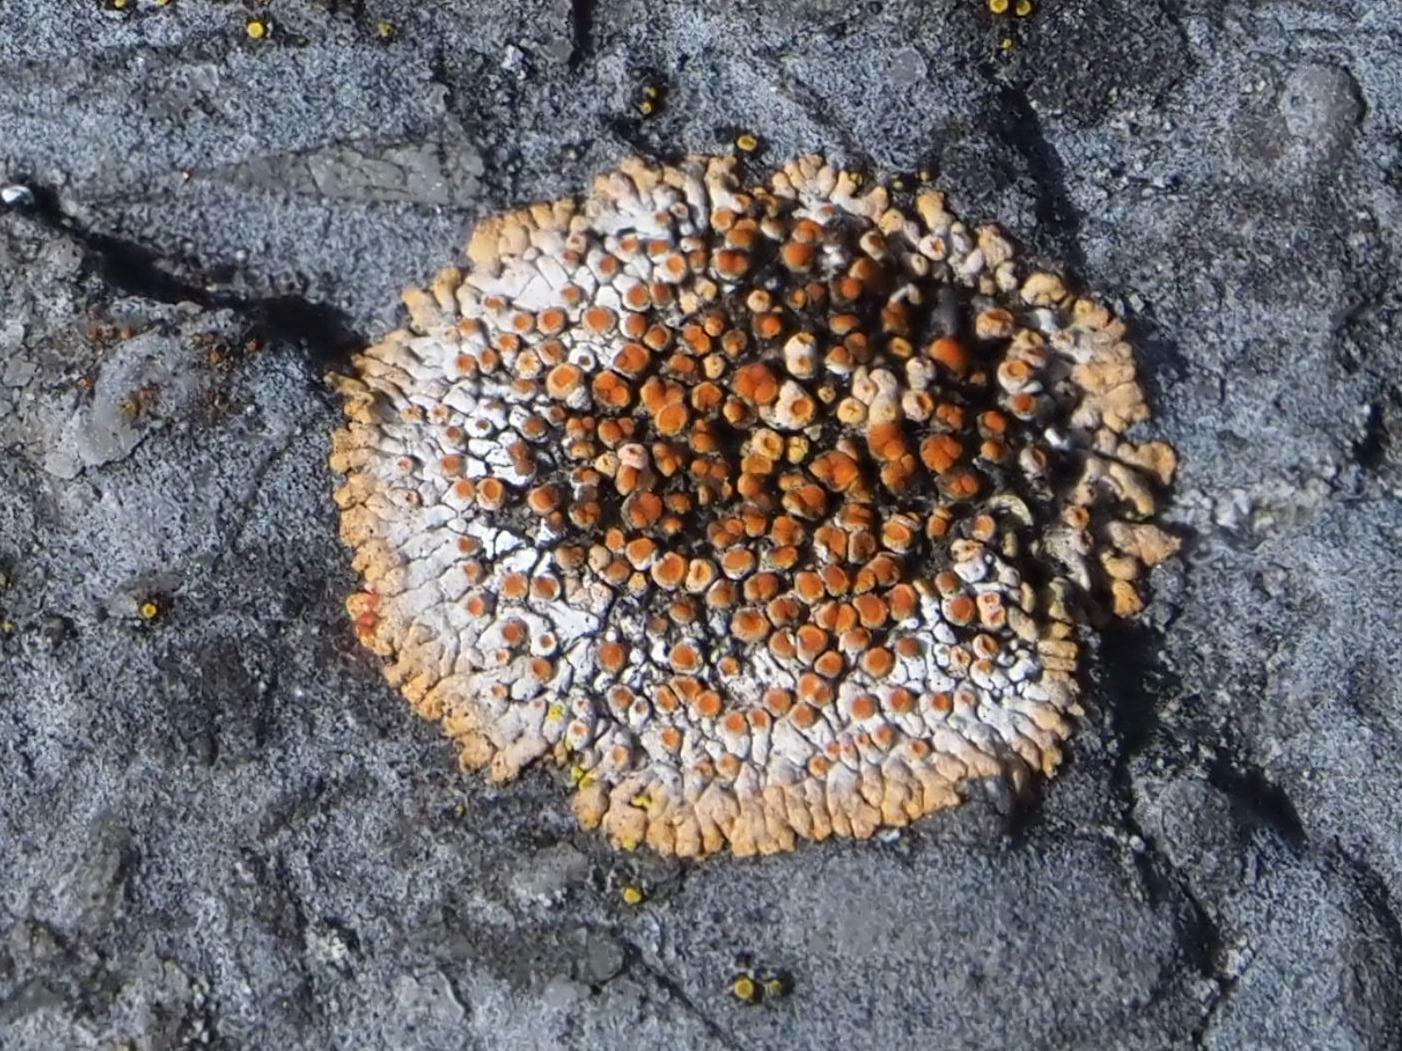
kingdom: Fungi
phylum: Ascomycota
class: Lecanoromycetes
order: Teloschistales
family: Teloschistaceae
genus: Calogaya
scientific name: Calogaya pusilla
